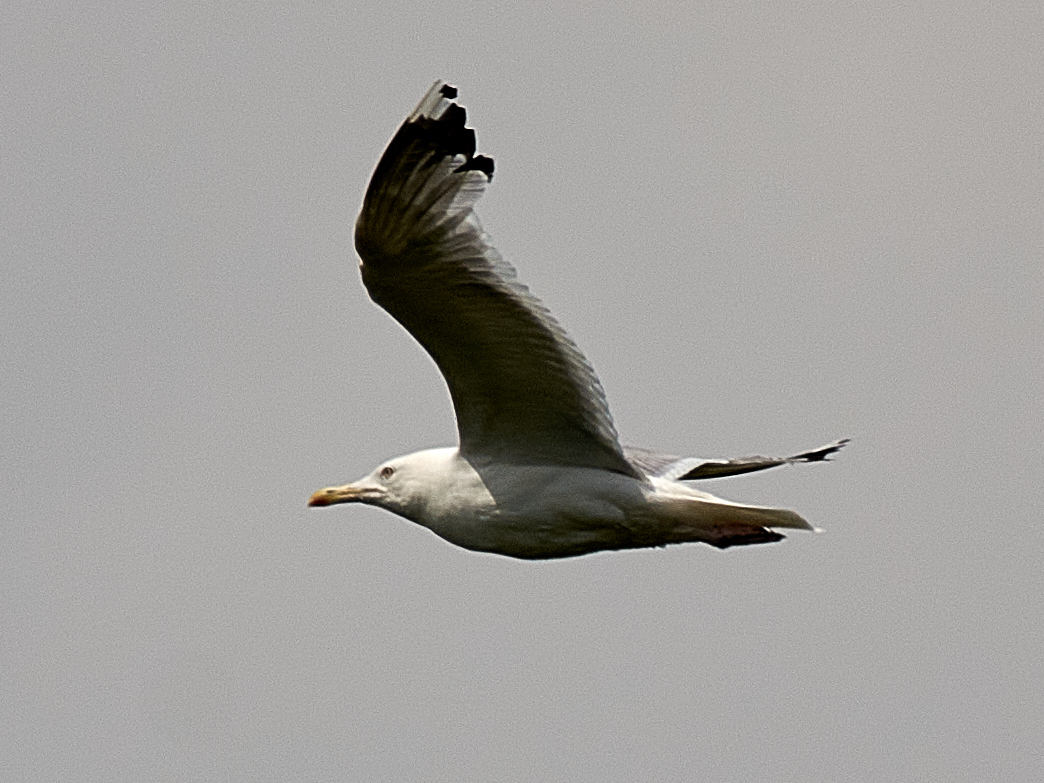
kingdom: Animalia
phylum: Chordata
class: Aves
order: Charadriiformes
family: Laridae
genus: Larus
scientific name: Larus argentatus
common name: Herring gull
